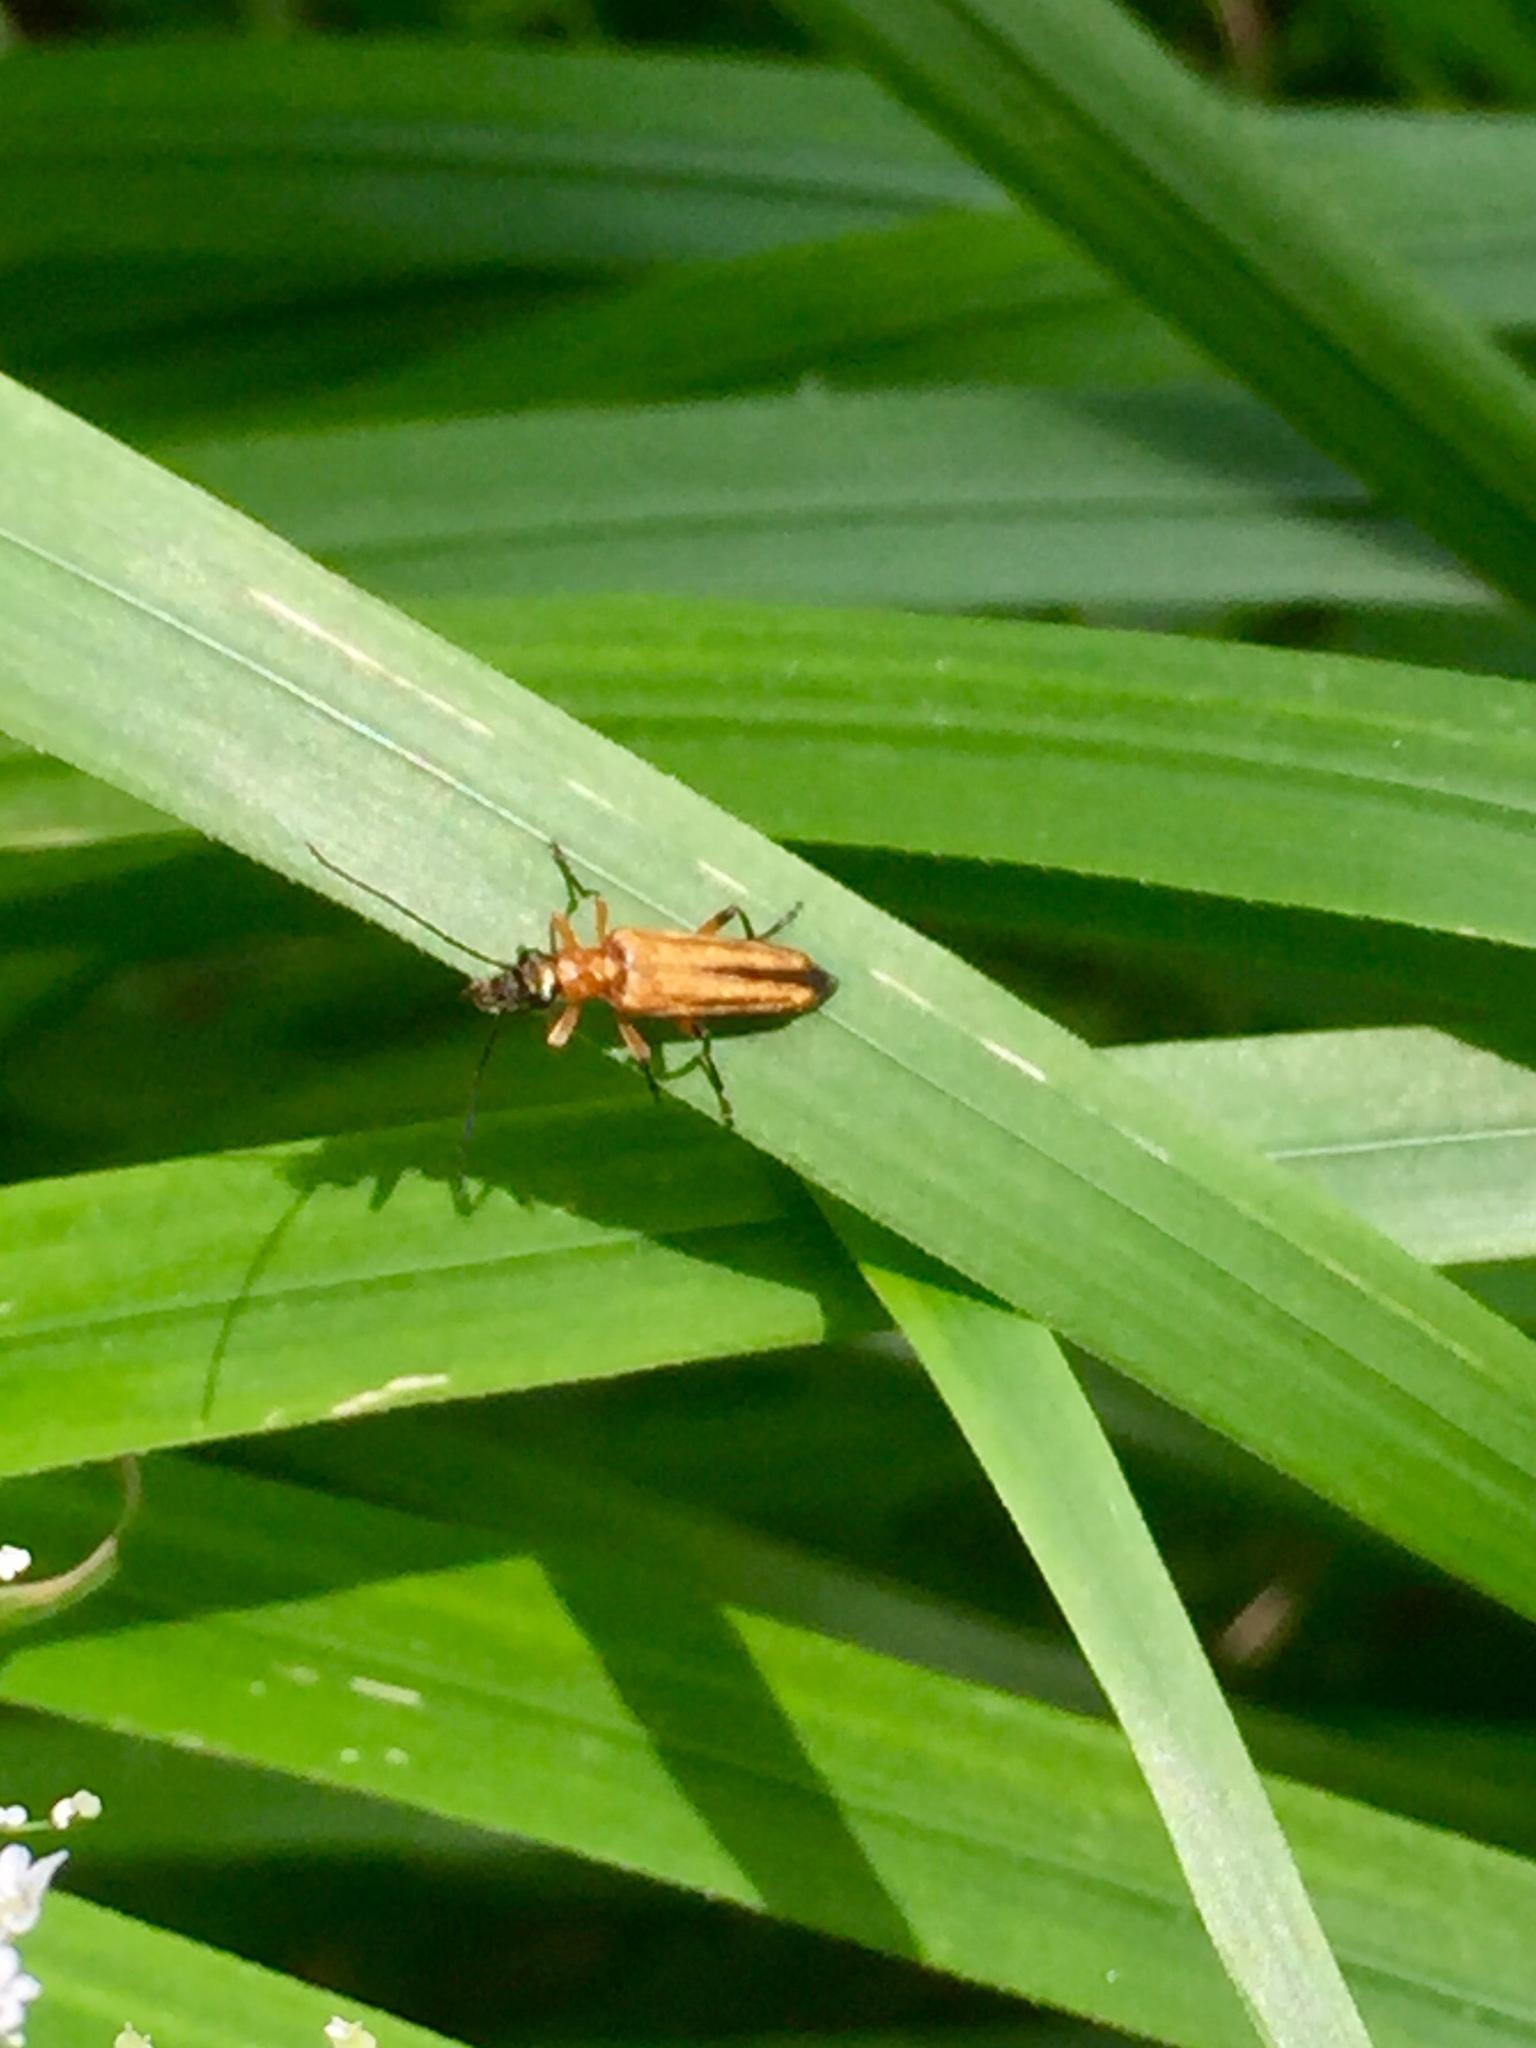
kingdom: Animalia
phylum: Arthropoda
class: Insecta
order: Coleoptera
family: Oedemeridae
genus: Oedemera
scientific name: Oedemera podagrariae
